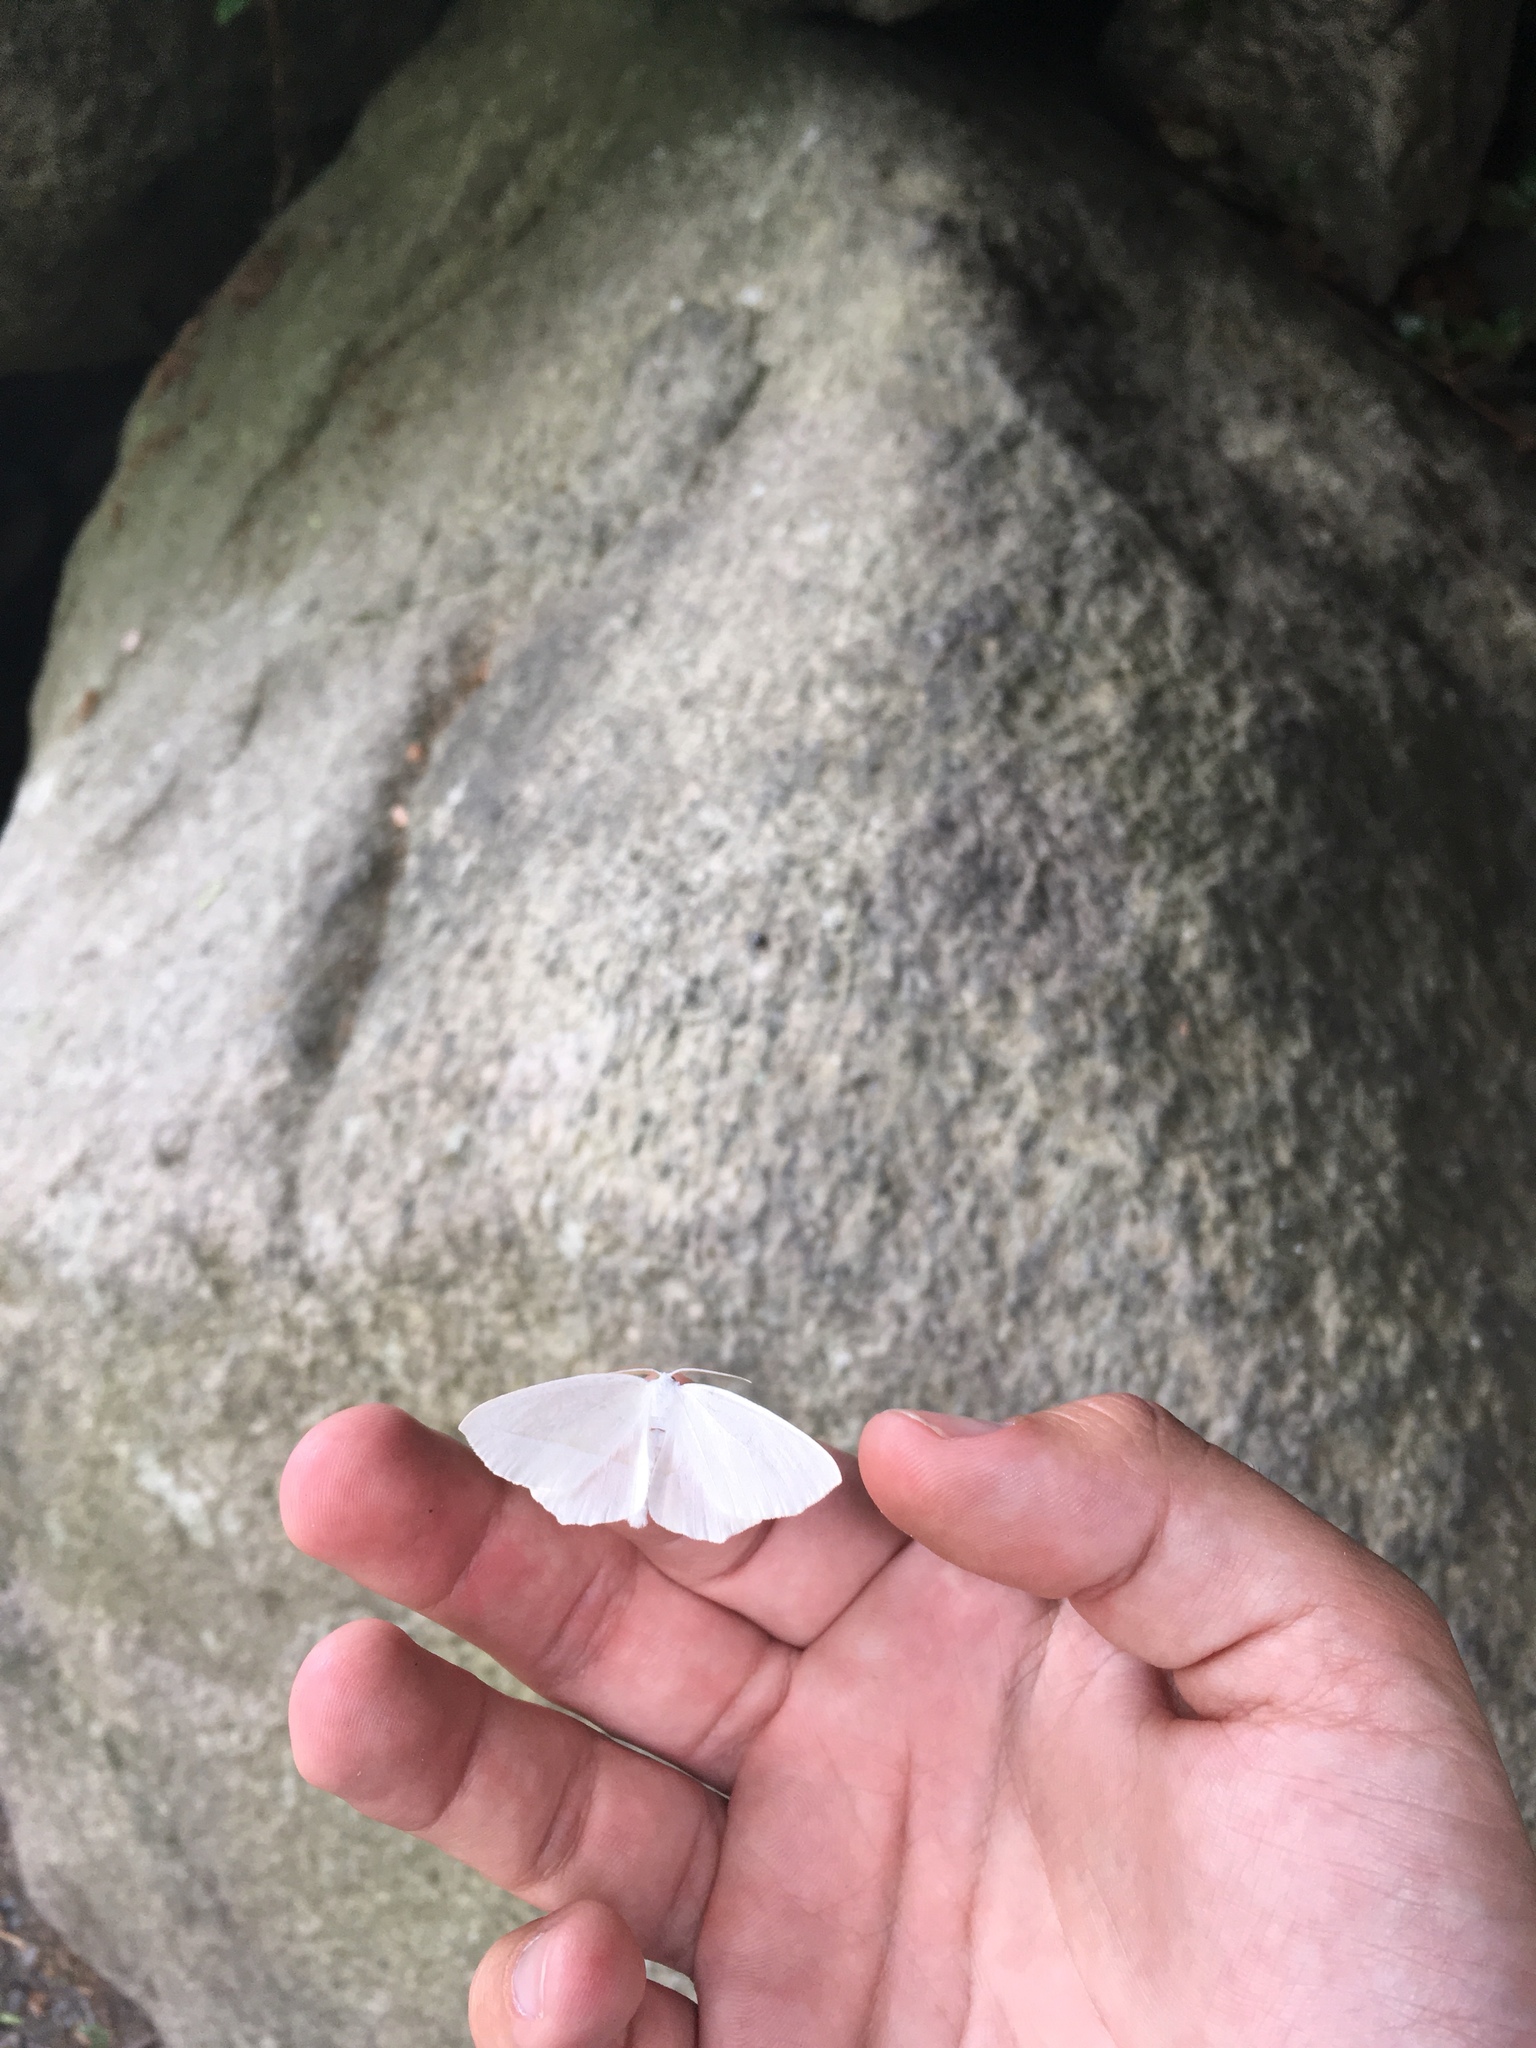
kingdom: Animalia
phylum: Arthropoda
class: Insecta
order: Lepidoptera
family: Geometridae
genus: Campaea
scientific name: Campaea perlata
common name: Fringed looper
